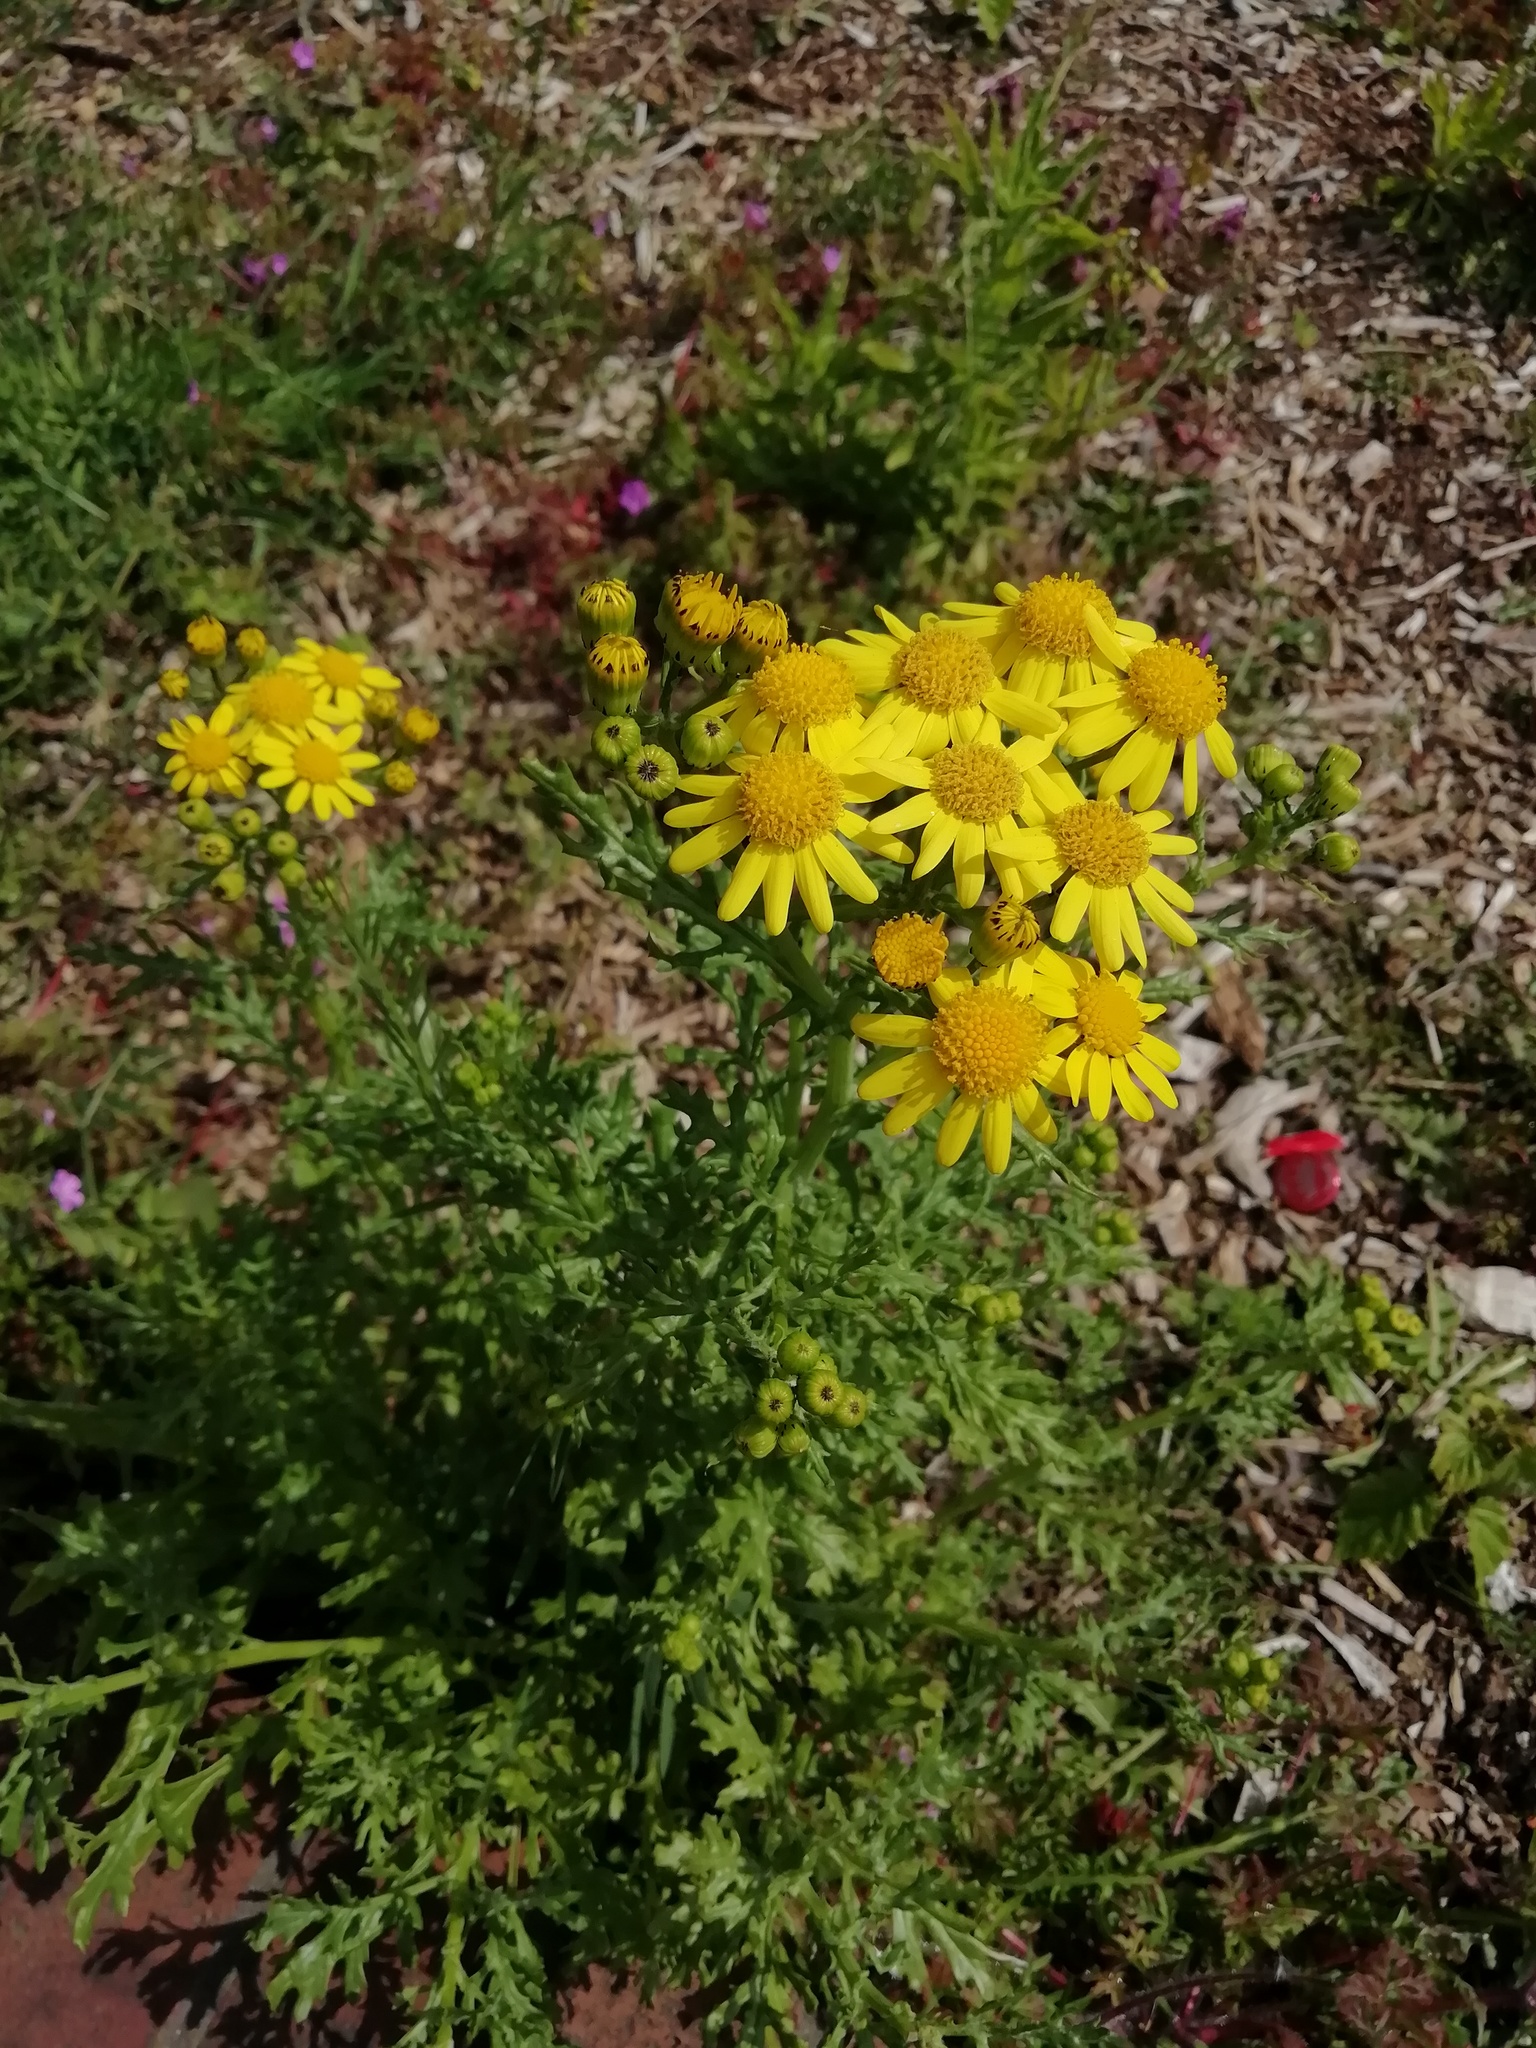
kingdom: Plantae
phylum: Tracheophyta
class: Magnoliopsida
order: Asterales
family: Asteraceae
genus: Senecio
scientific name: Senecio squalidus
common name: Oxford ragwort
